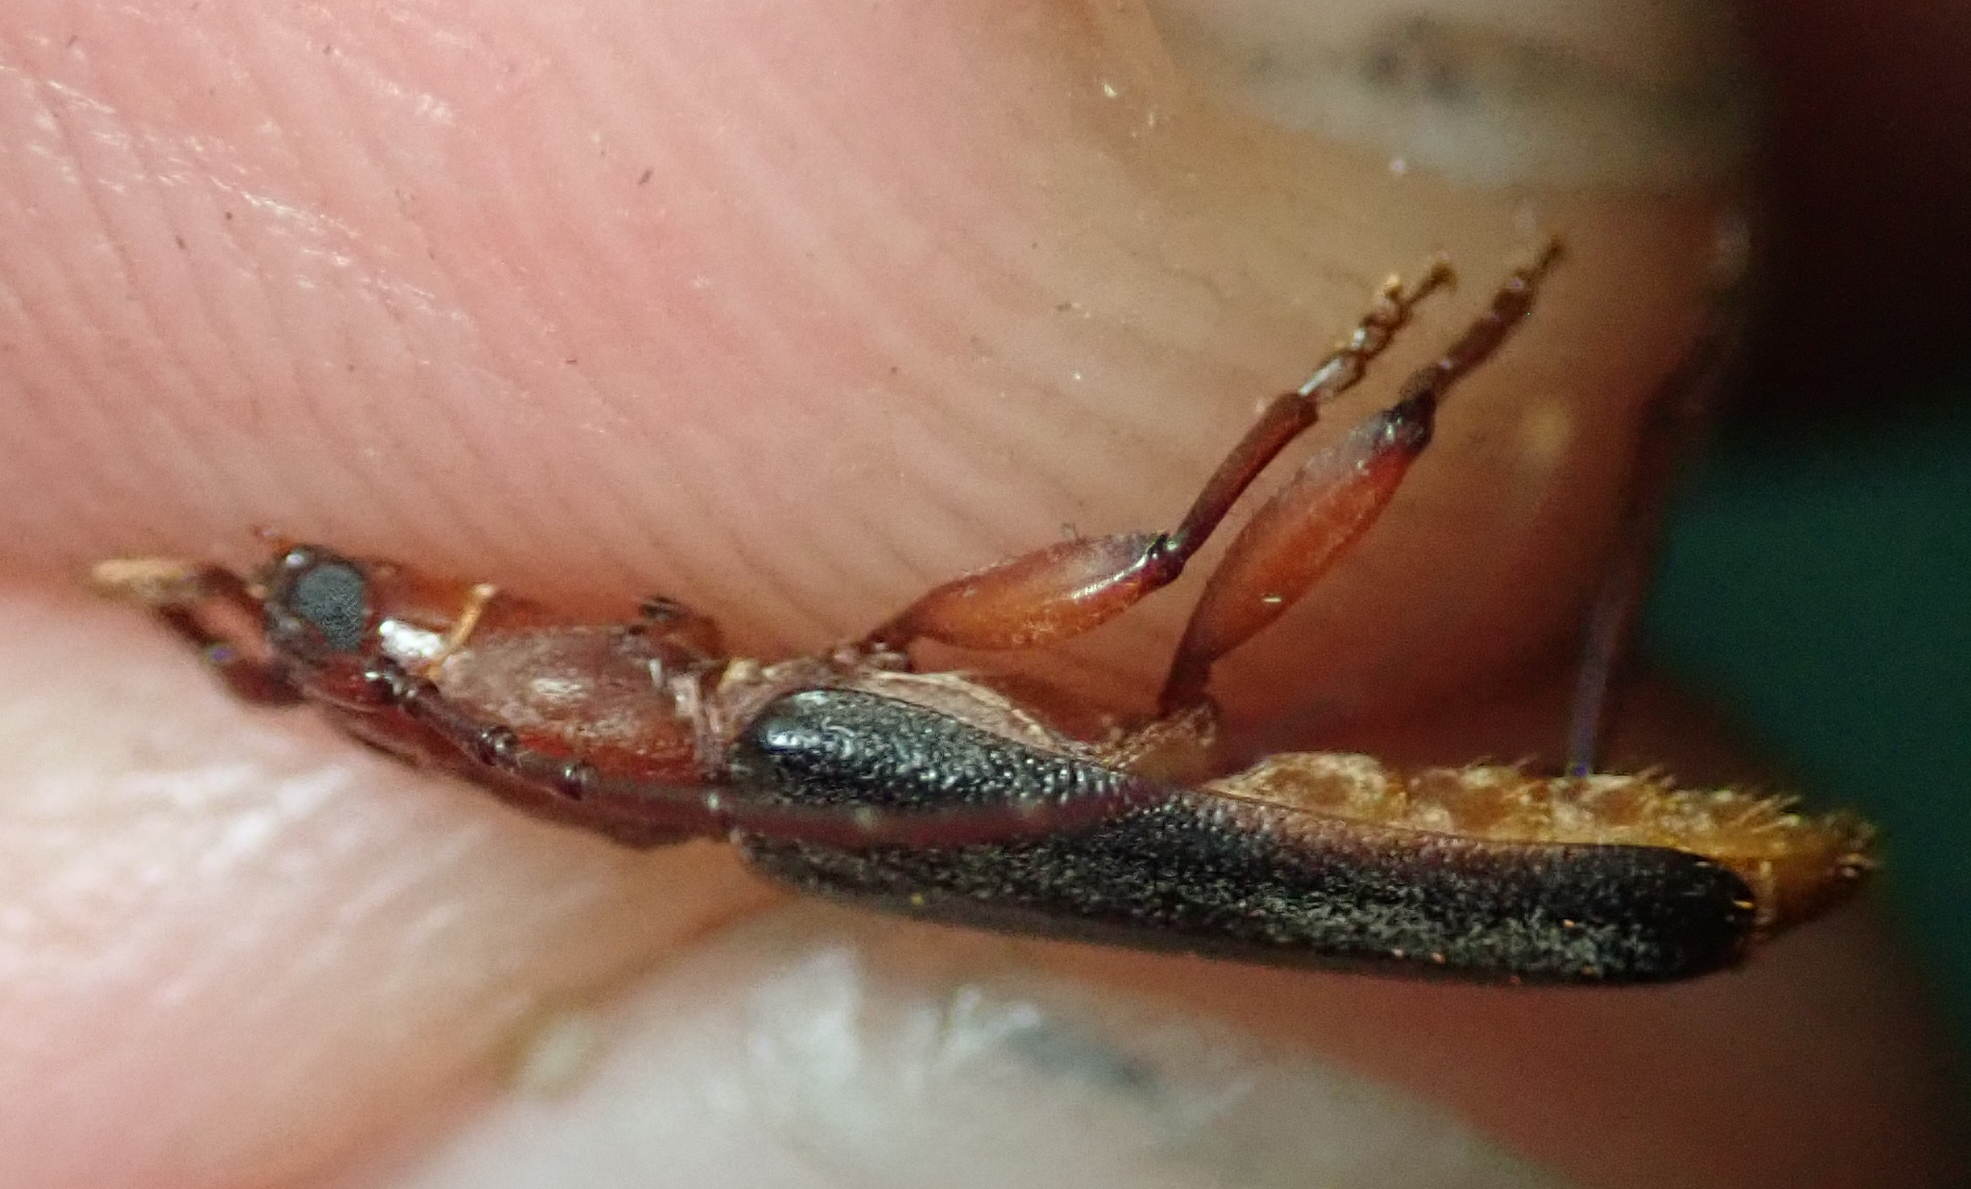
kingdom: Animalia
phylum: Arthropoda
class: Insecta
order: Coleoptera
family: Cerambycidae
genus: Pseudossibia
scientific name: Pseudossibia obscurata
